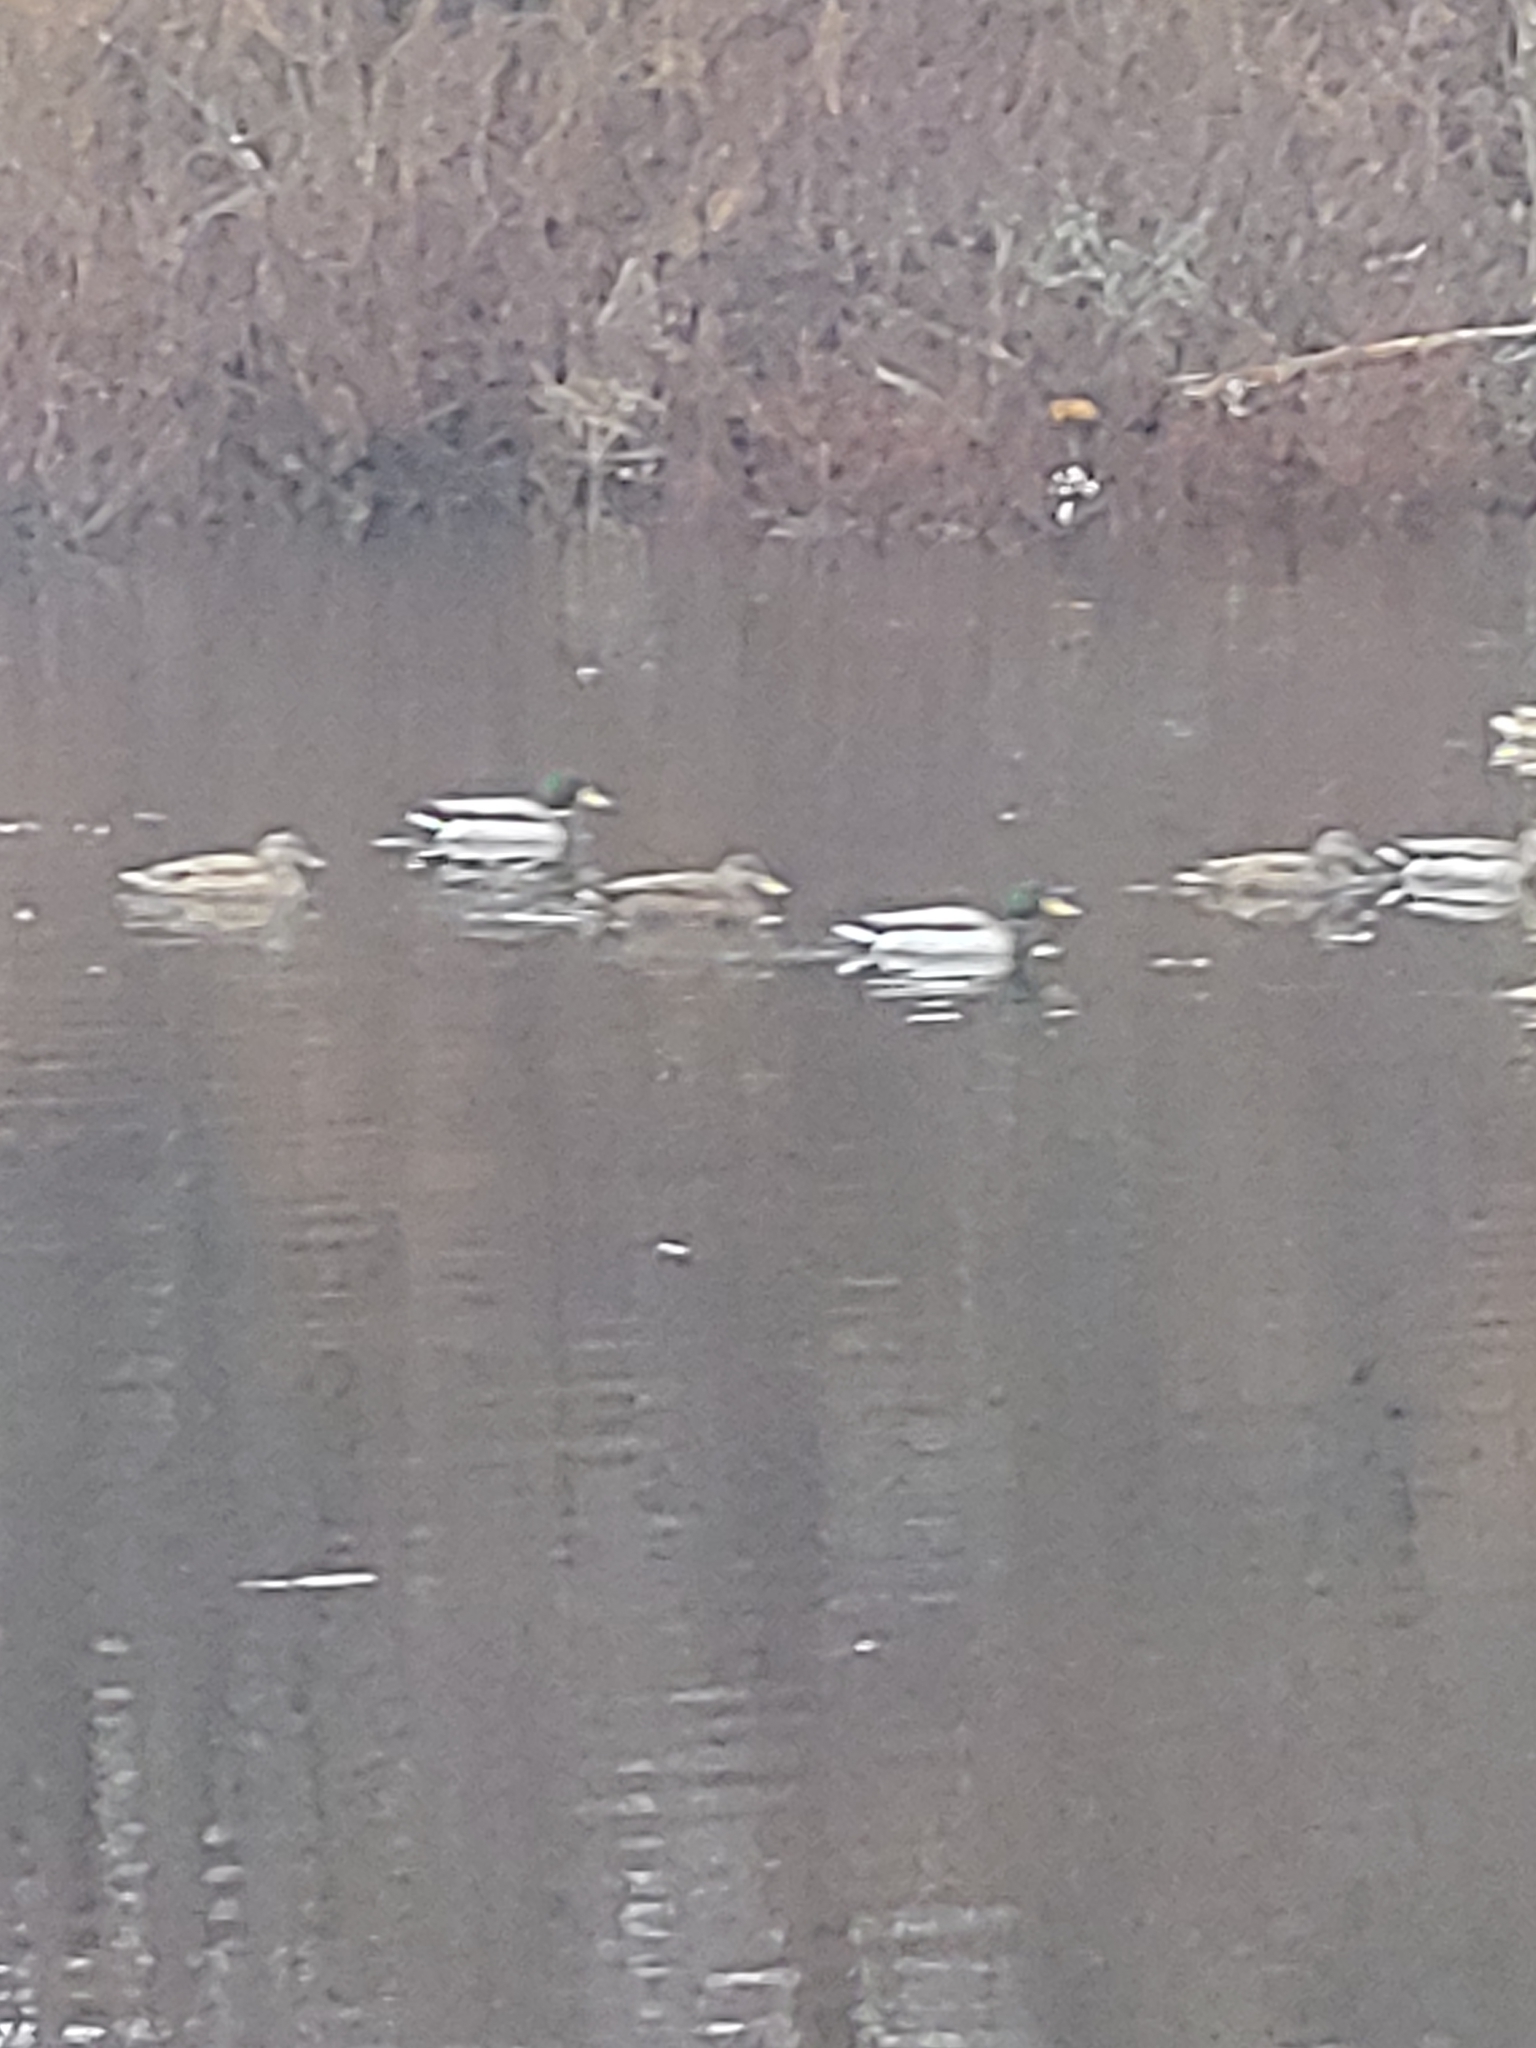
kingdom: Animalia
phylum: Chordata
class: Aves
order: Anseriformes
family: Anatidae
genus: Anas
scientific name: Anas platyrhynchos
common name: Mallard
